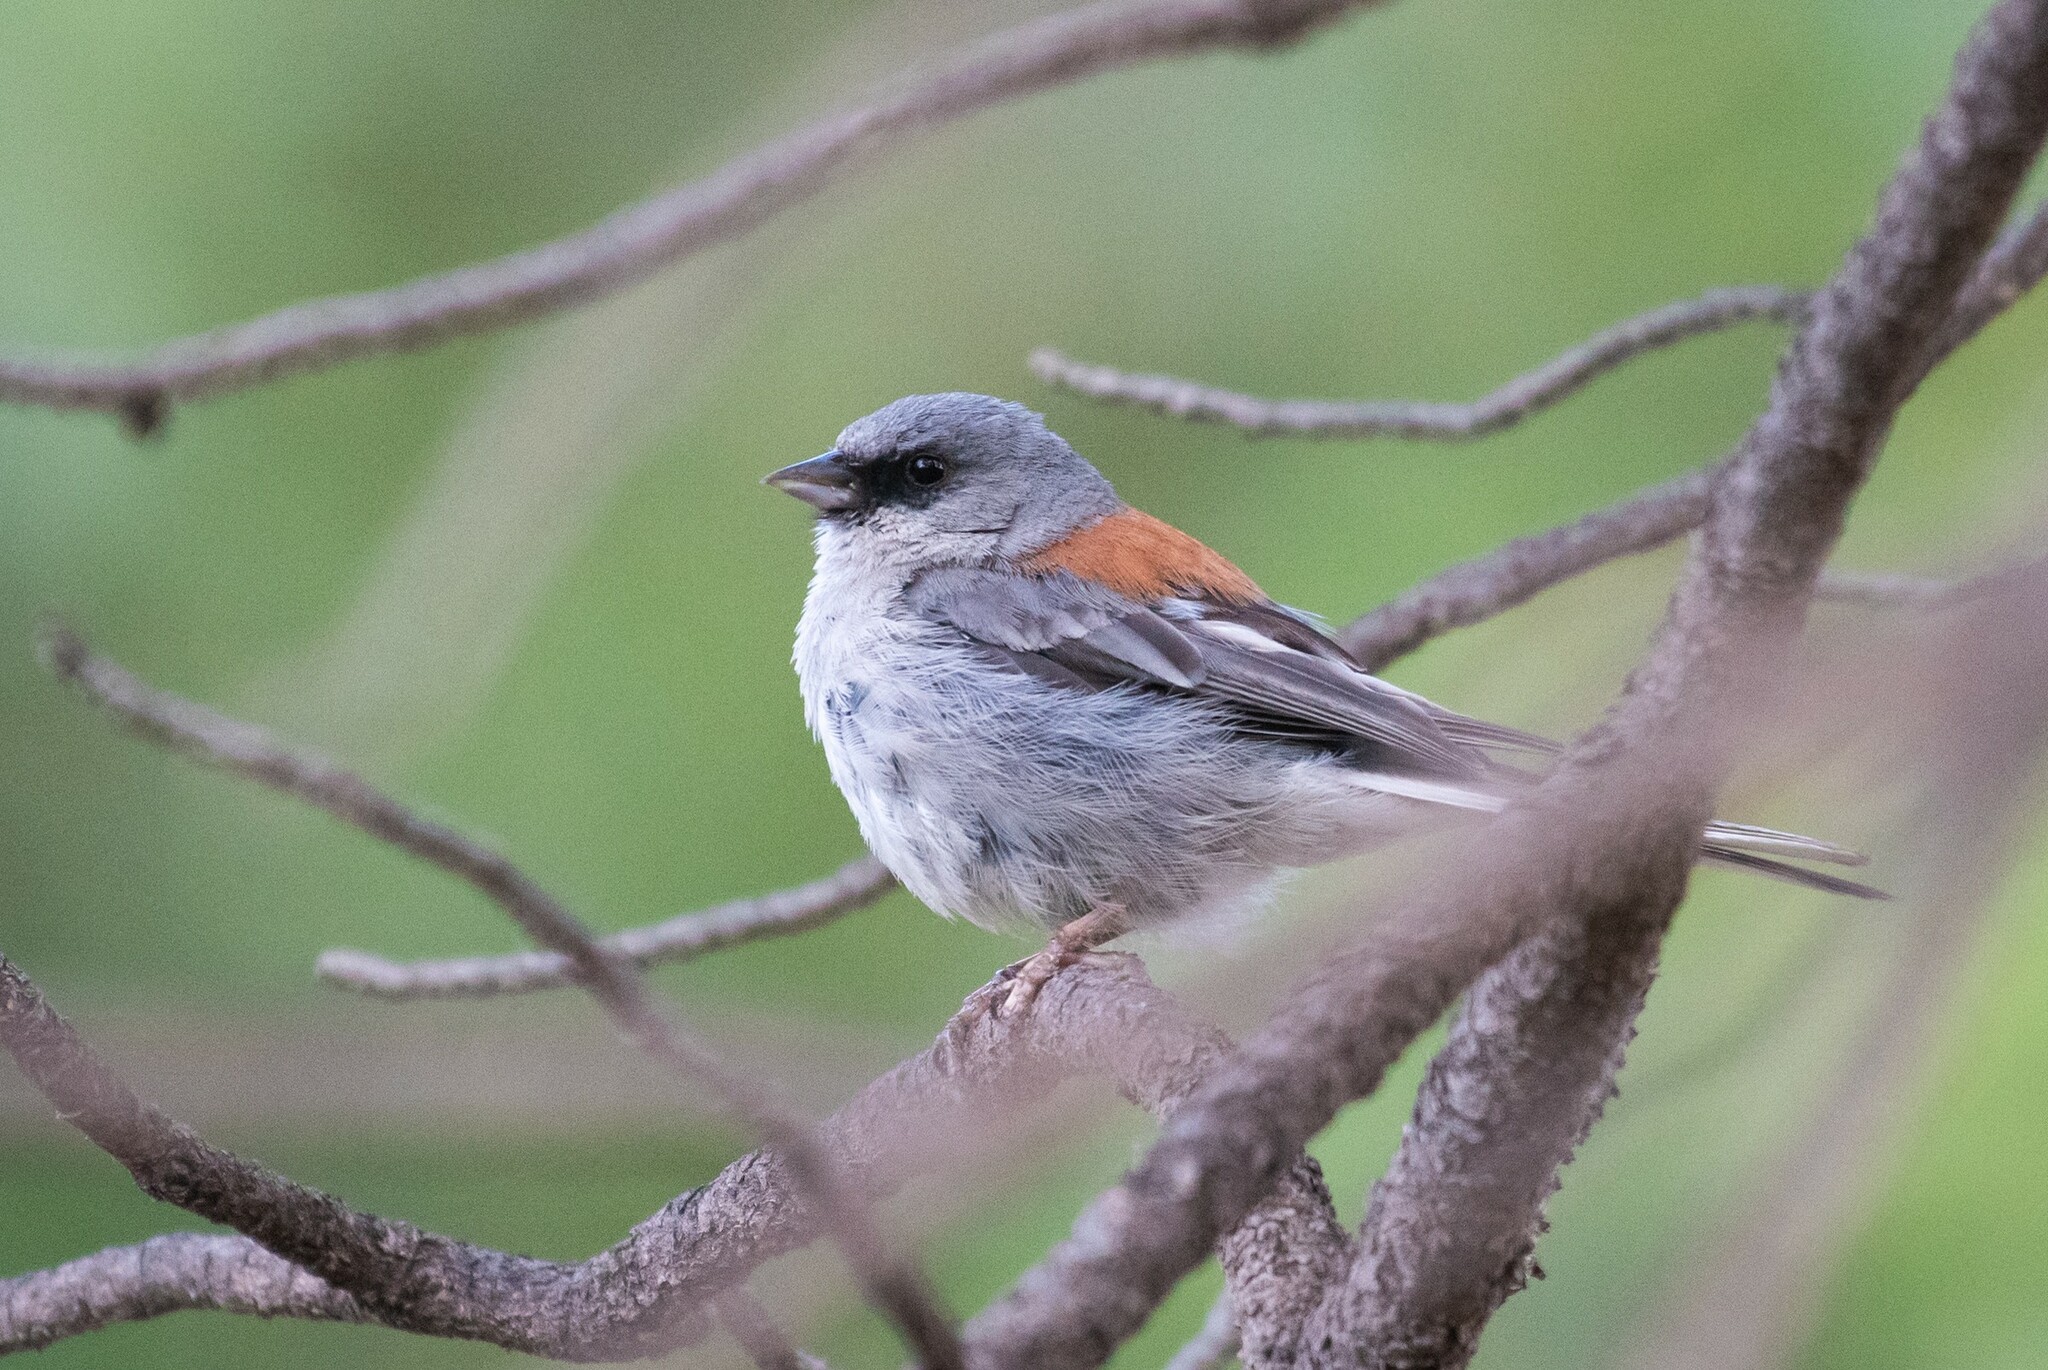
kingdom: Animalia
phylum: Chordata
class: Aves
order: Passeriformes
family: Passerellidae
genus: Junco
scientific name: Junco hyemalis
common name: Dark-eyed junco
